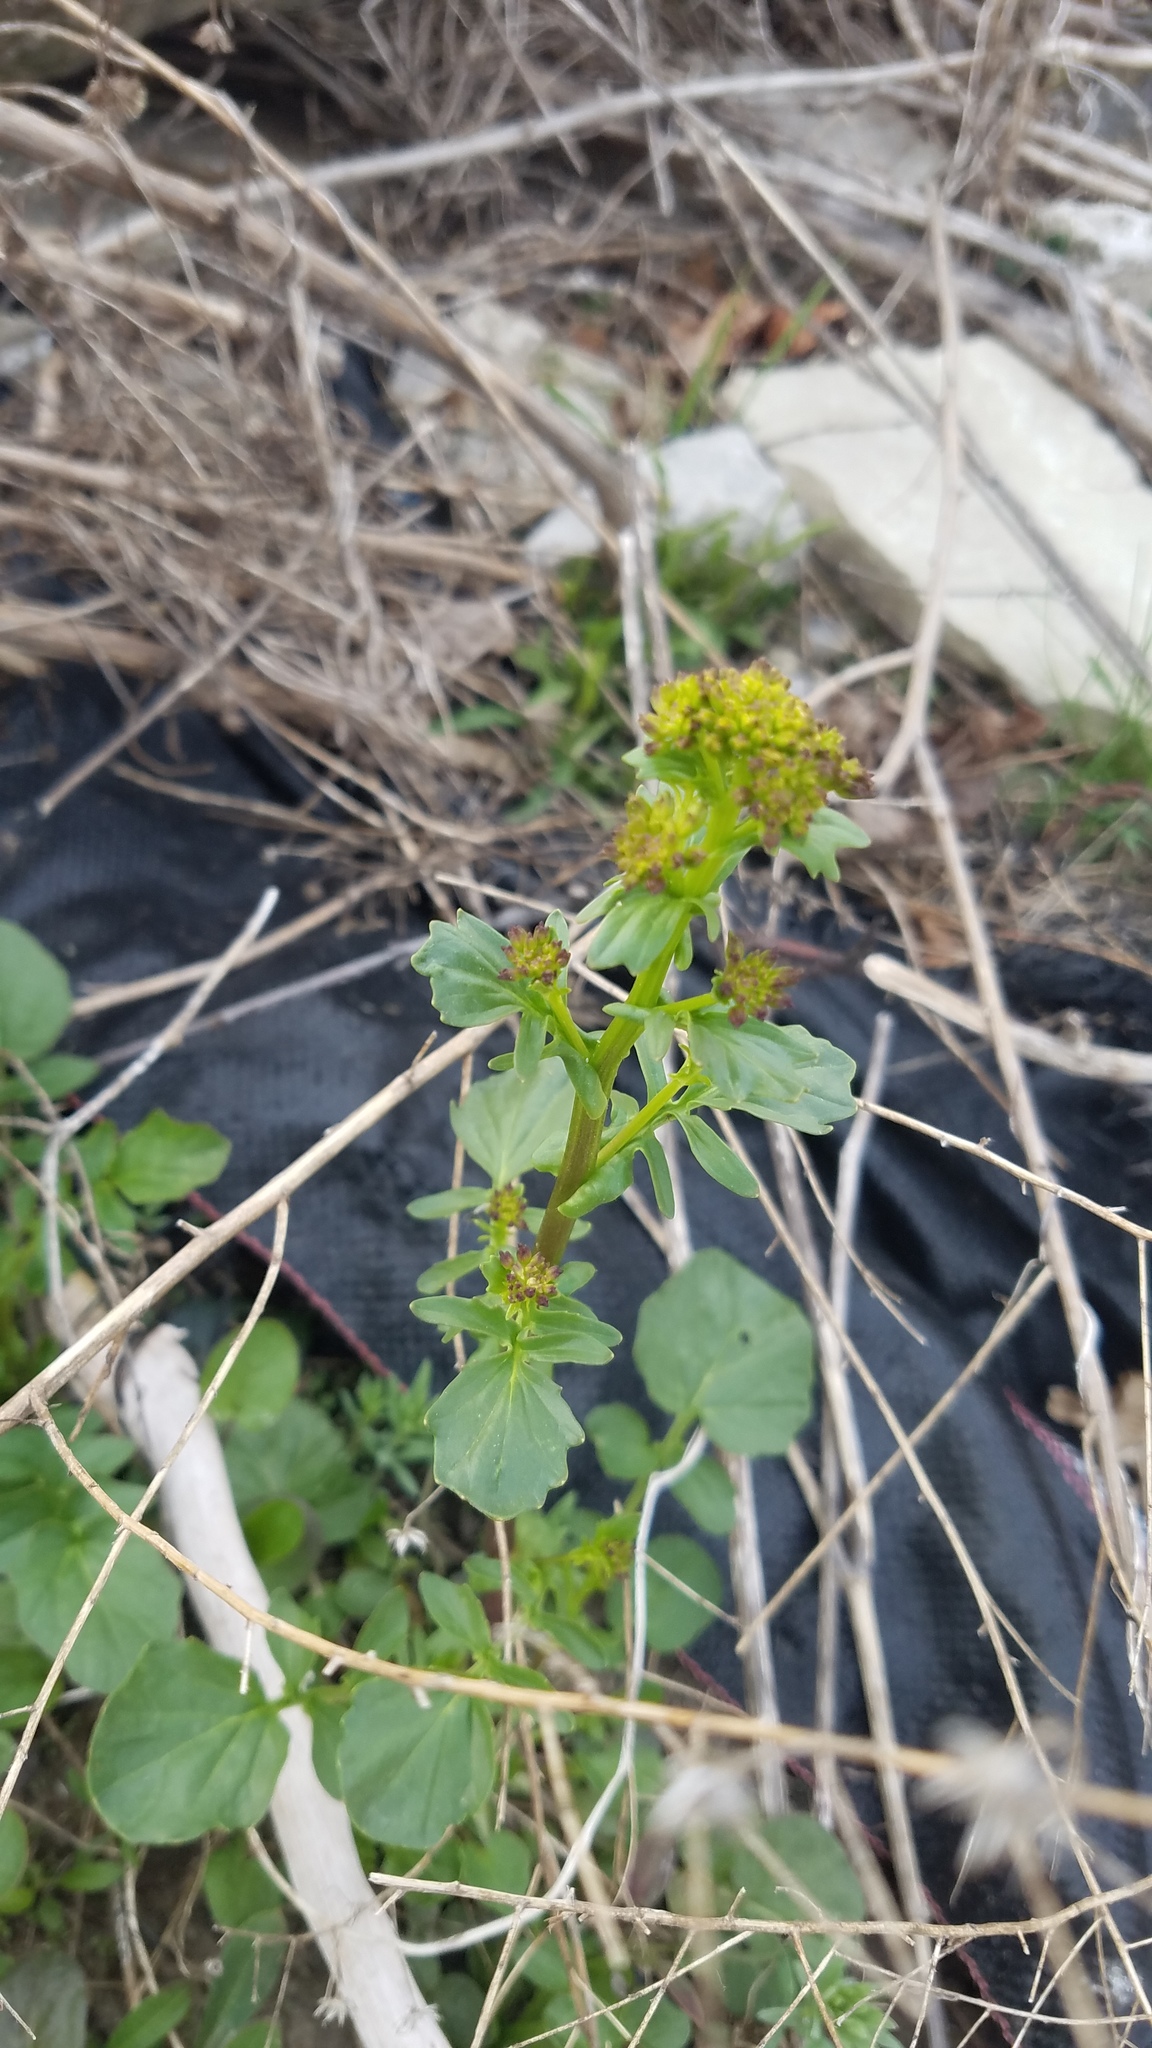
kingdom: Plantae
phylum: Tracheophyta
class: Magnoliopsida
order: Brassicales
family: Brassicaceae
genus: Barbarea
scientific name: Barbarea vulgaris
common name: Cressy-greens
